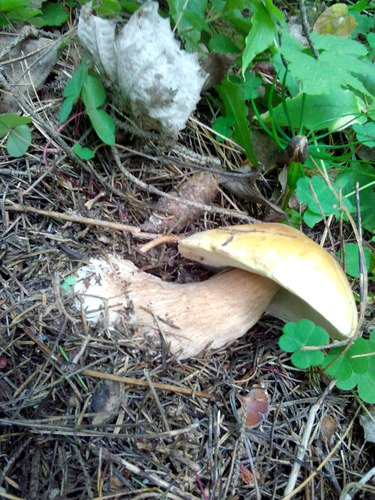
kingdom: Fungi
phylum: Basidiomycota
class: Agaricomycetes
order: Boletales
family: Boletaceae
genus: Boletus
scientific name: Boletus edulis
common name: Cep
